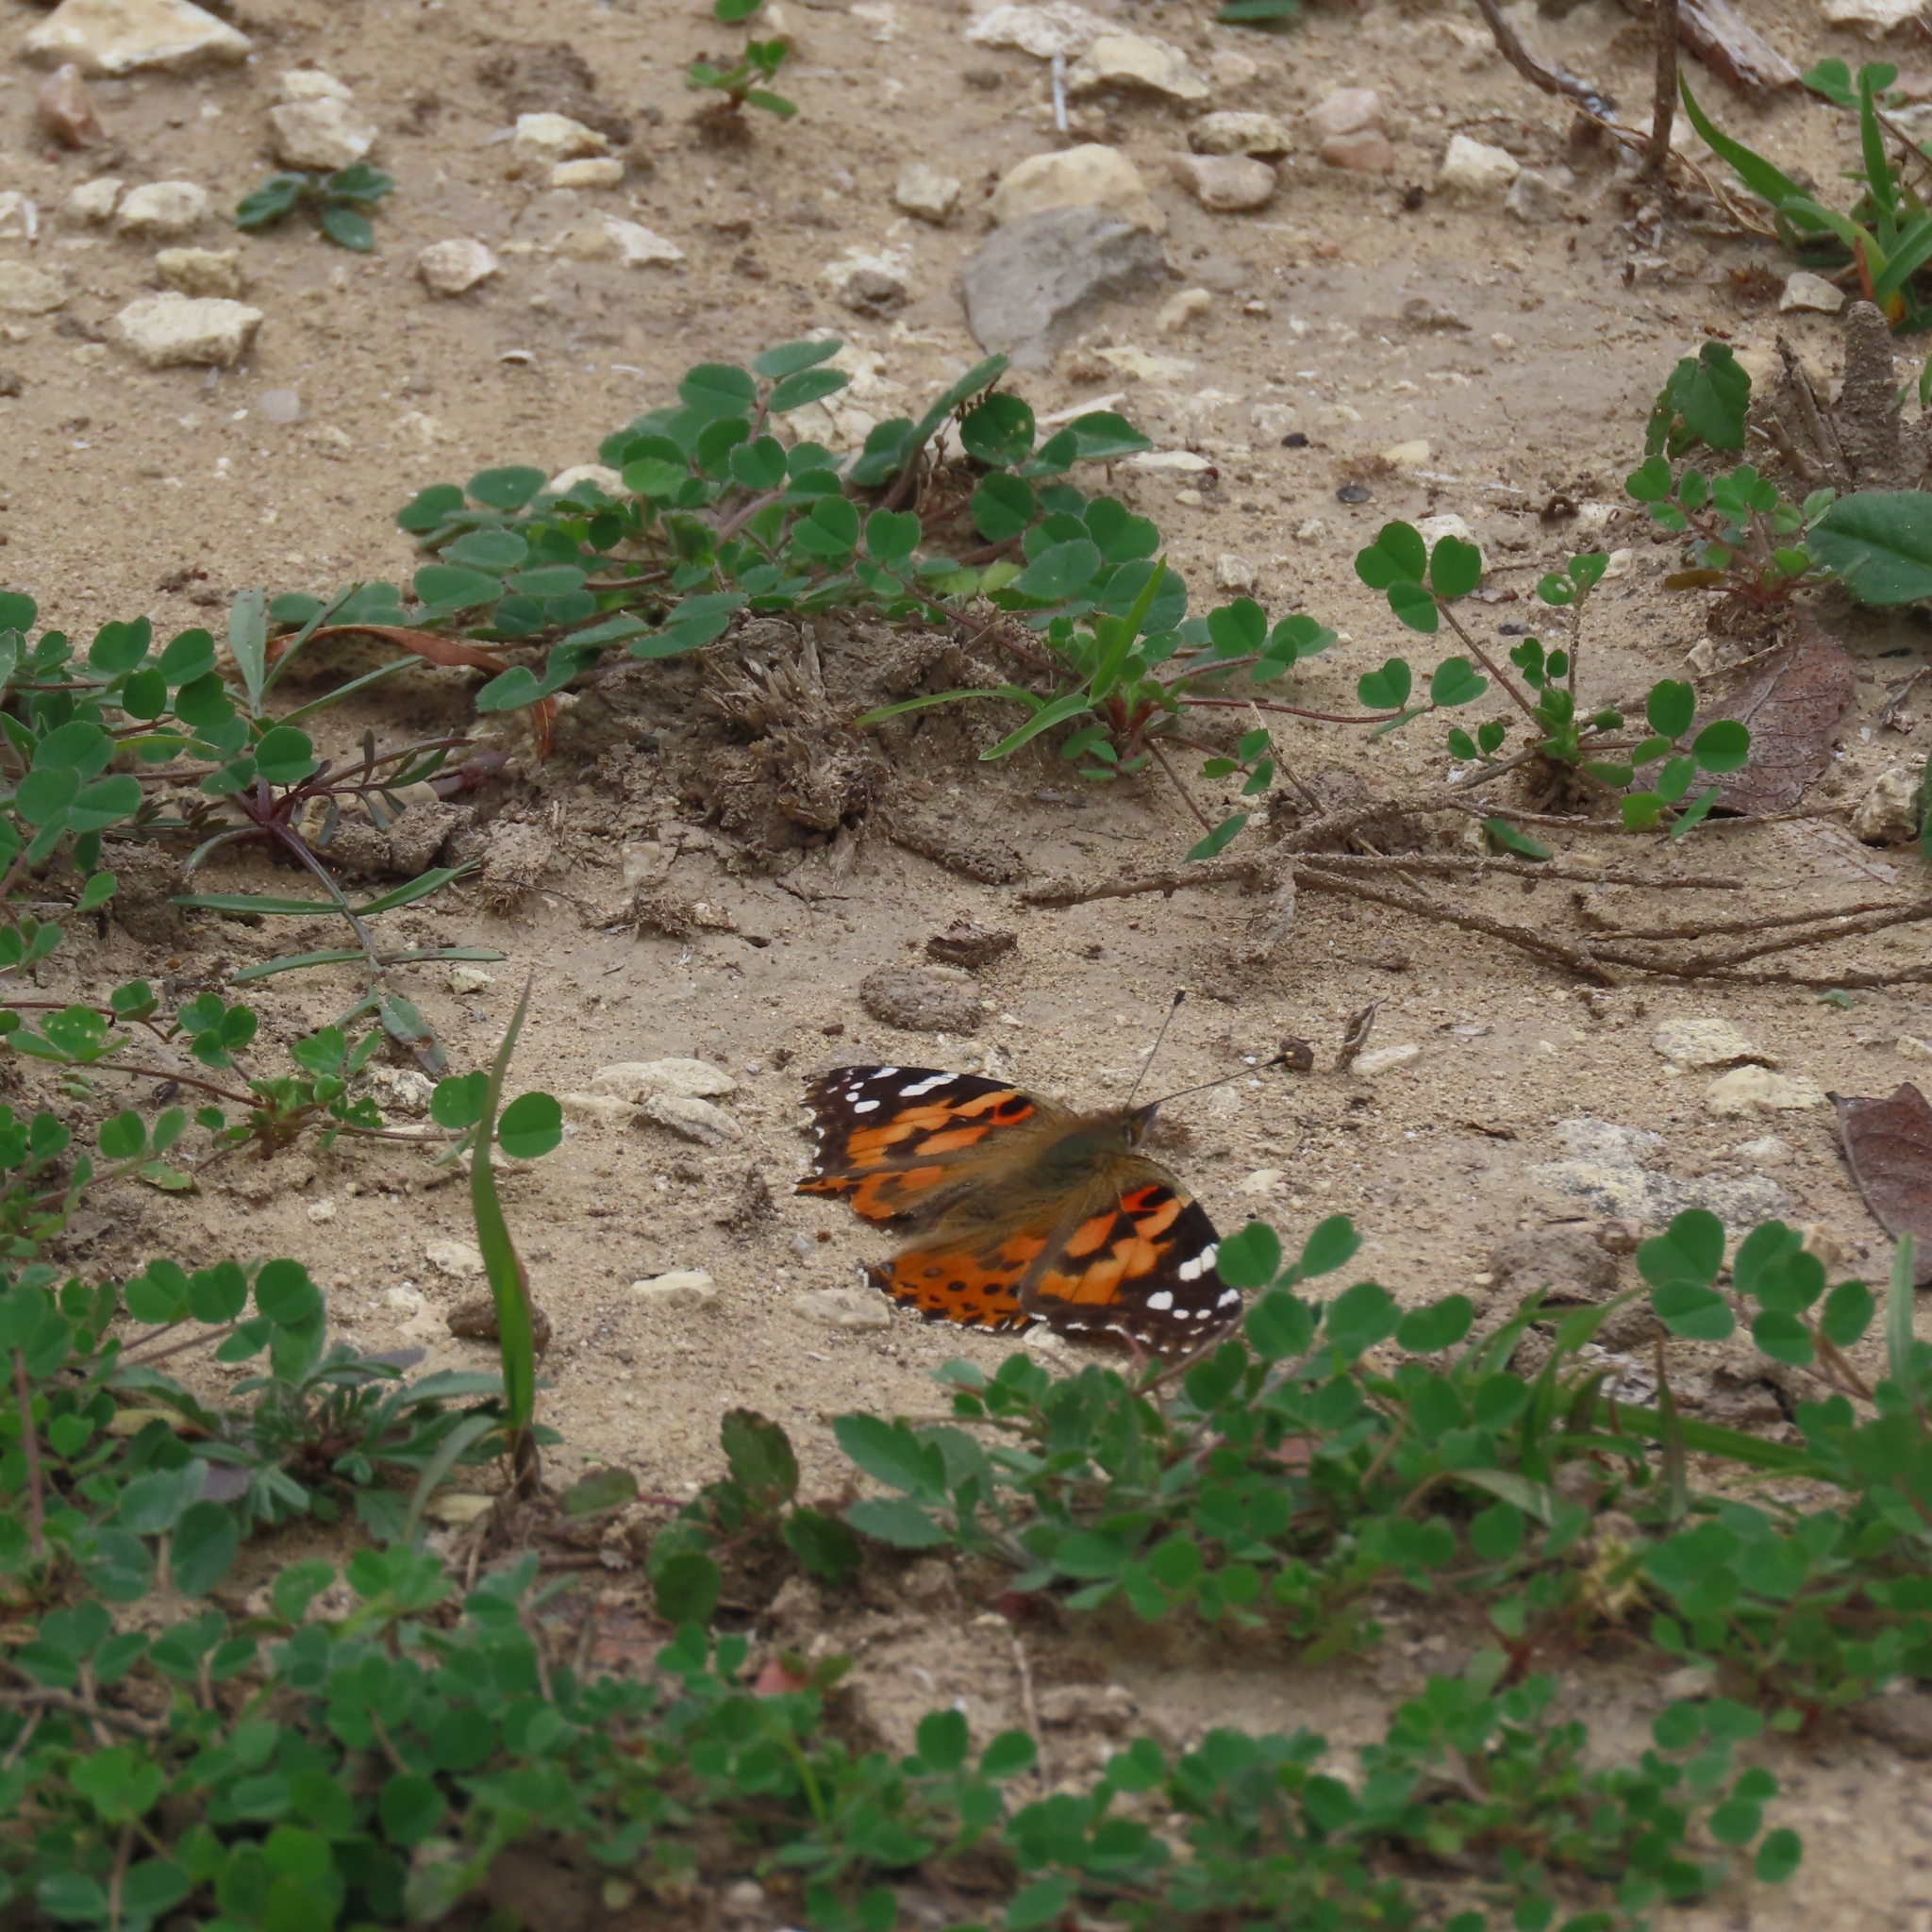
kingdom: Animalia
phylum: Arthropoda
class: Insecta
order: Lepidoptera
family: Nymphalidae
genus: Vanessa
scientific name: Vanessa cardui
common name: Painted lady
